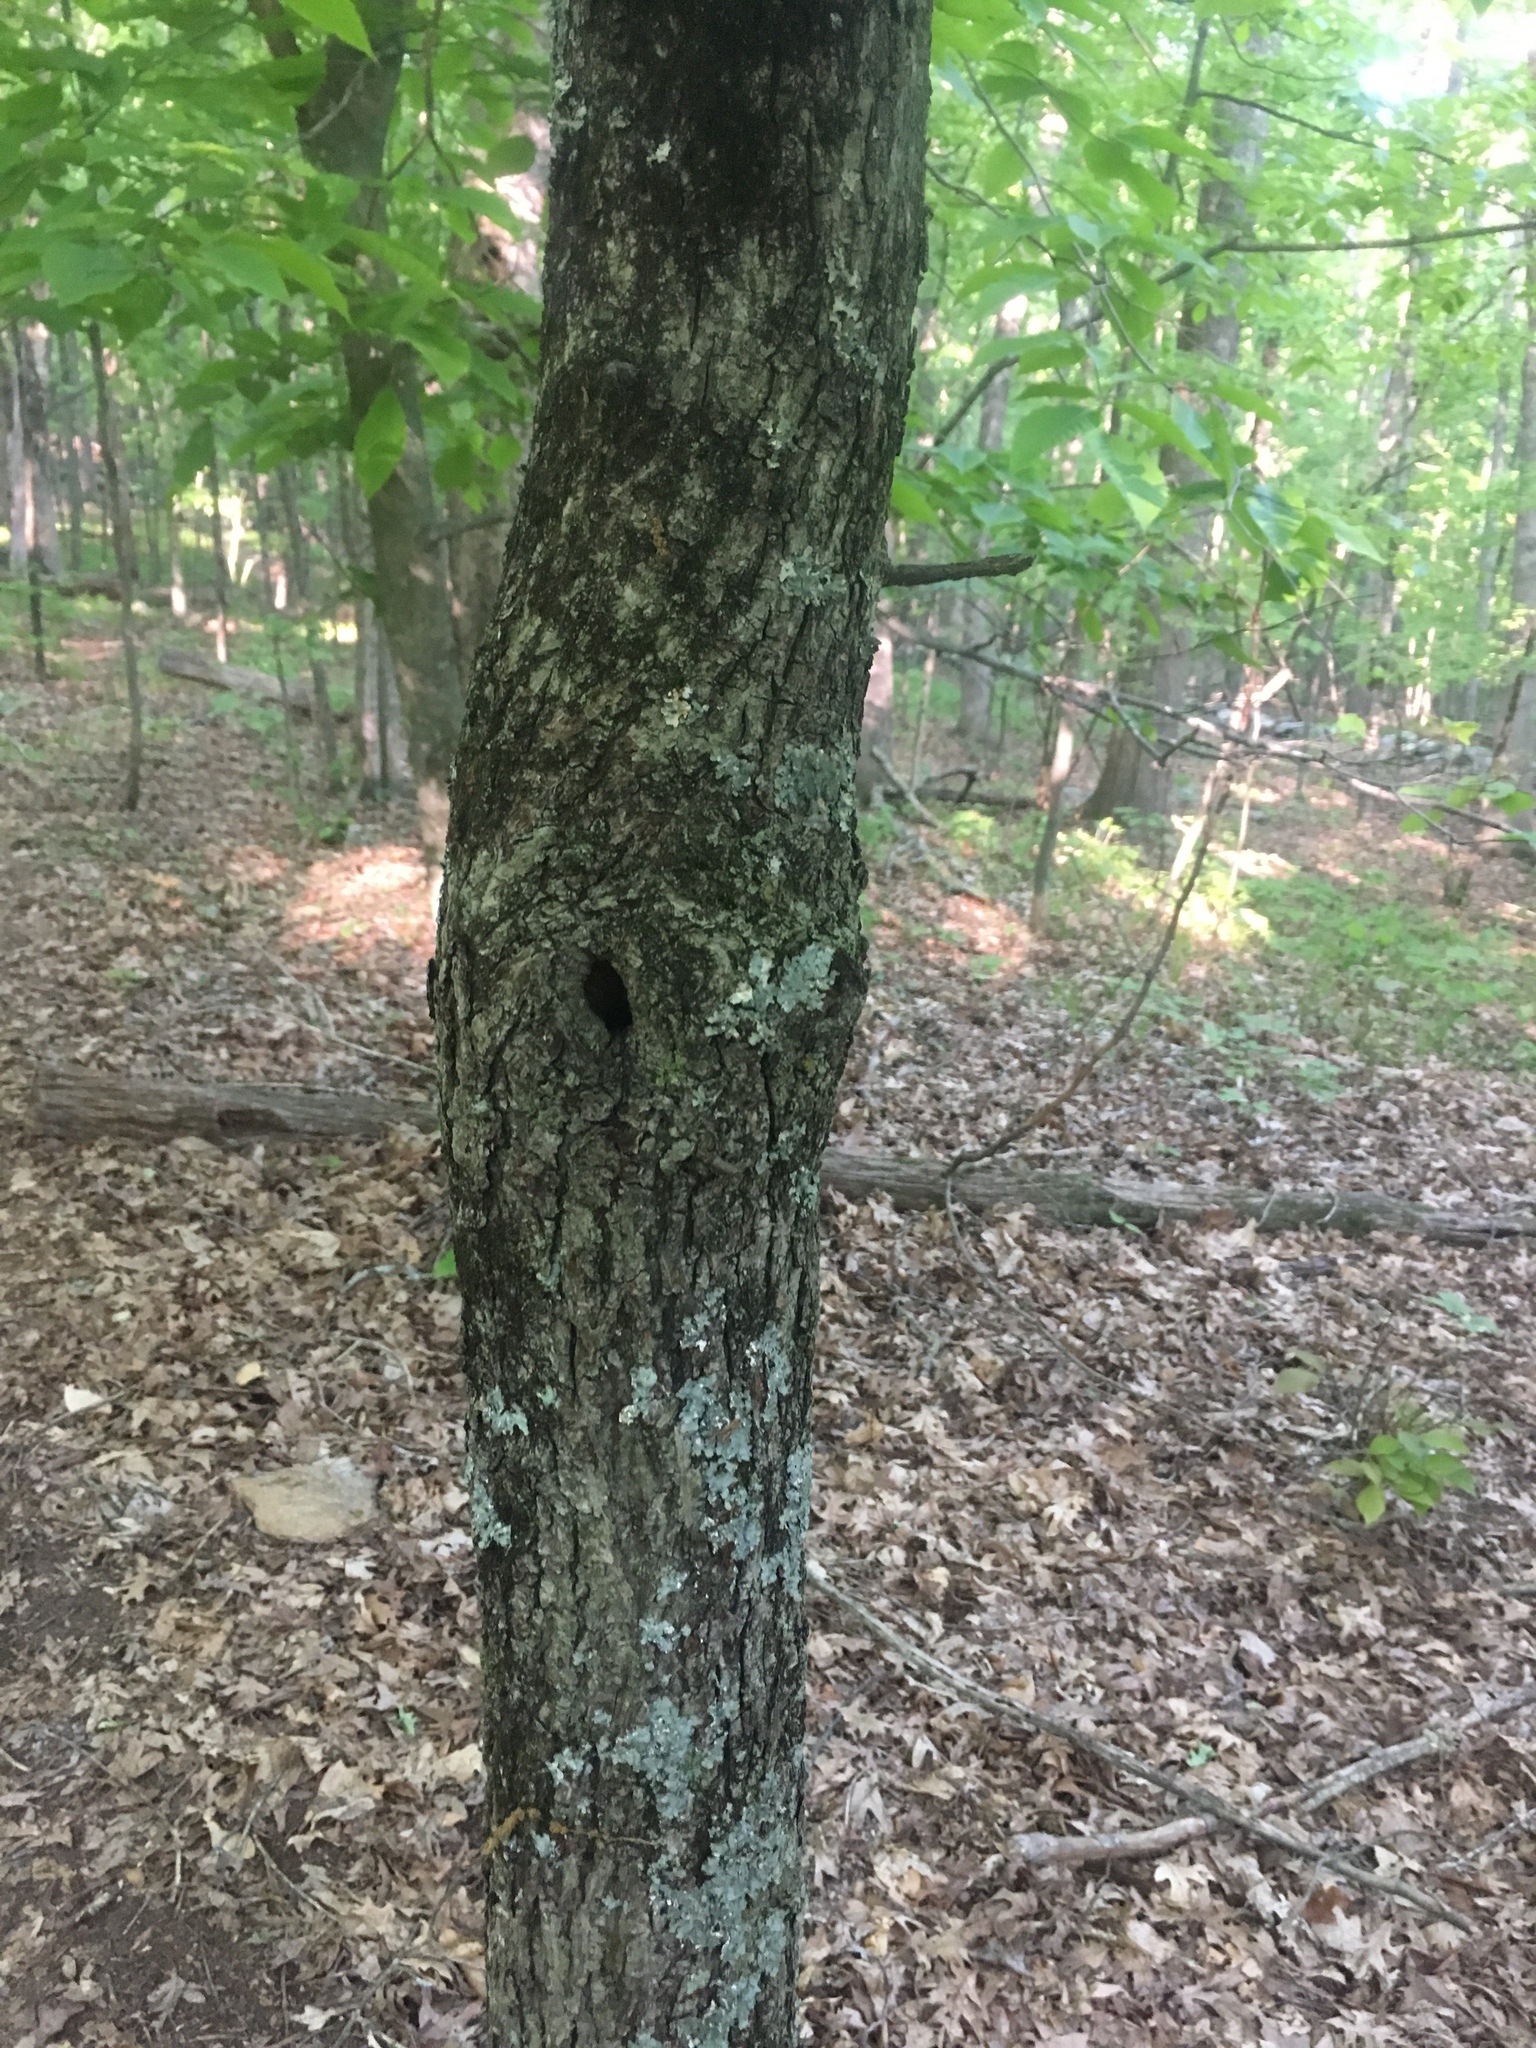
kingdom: Plantae
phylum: Tracheophyta
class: Magnoliopsida
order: Fagales
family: Juglandaceae
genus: Carya
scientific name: Carya glabra
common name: Pignut hickory
